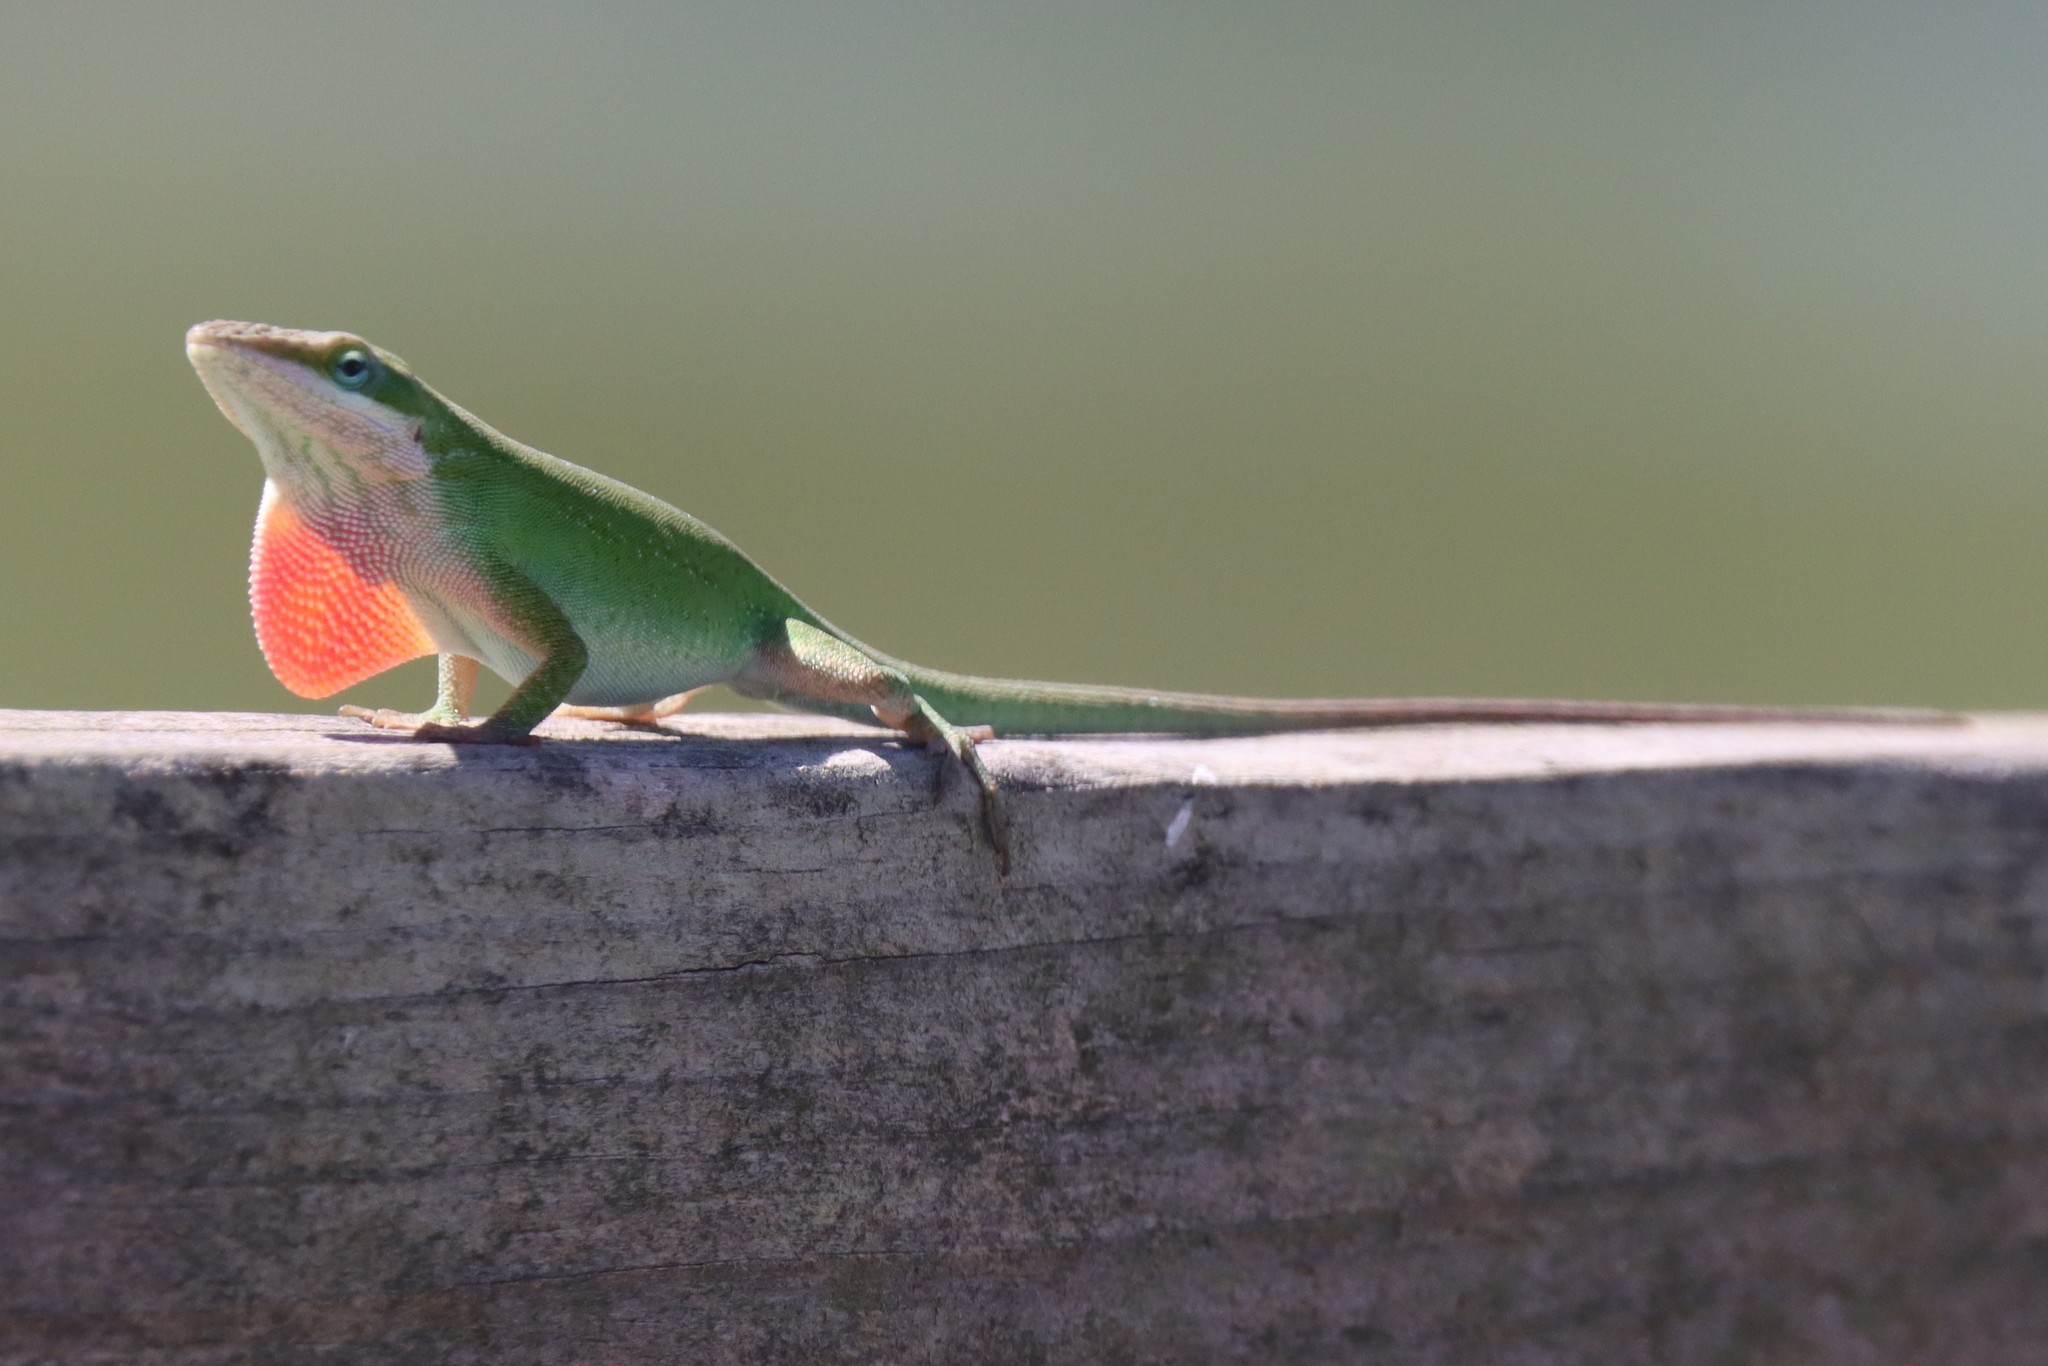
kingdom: Animalia
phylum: Chordata
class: Squamata
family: Dactyloidae
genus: Anolis
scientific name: Anolis carolinensis
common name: Green anole
